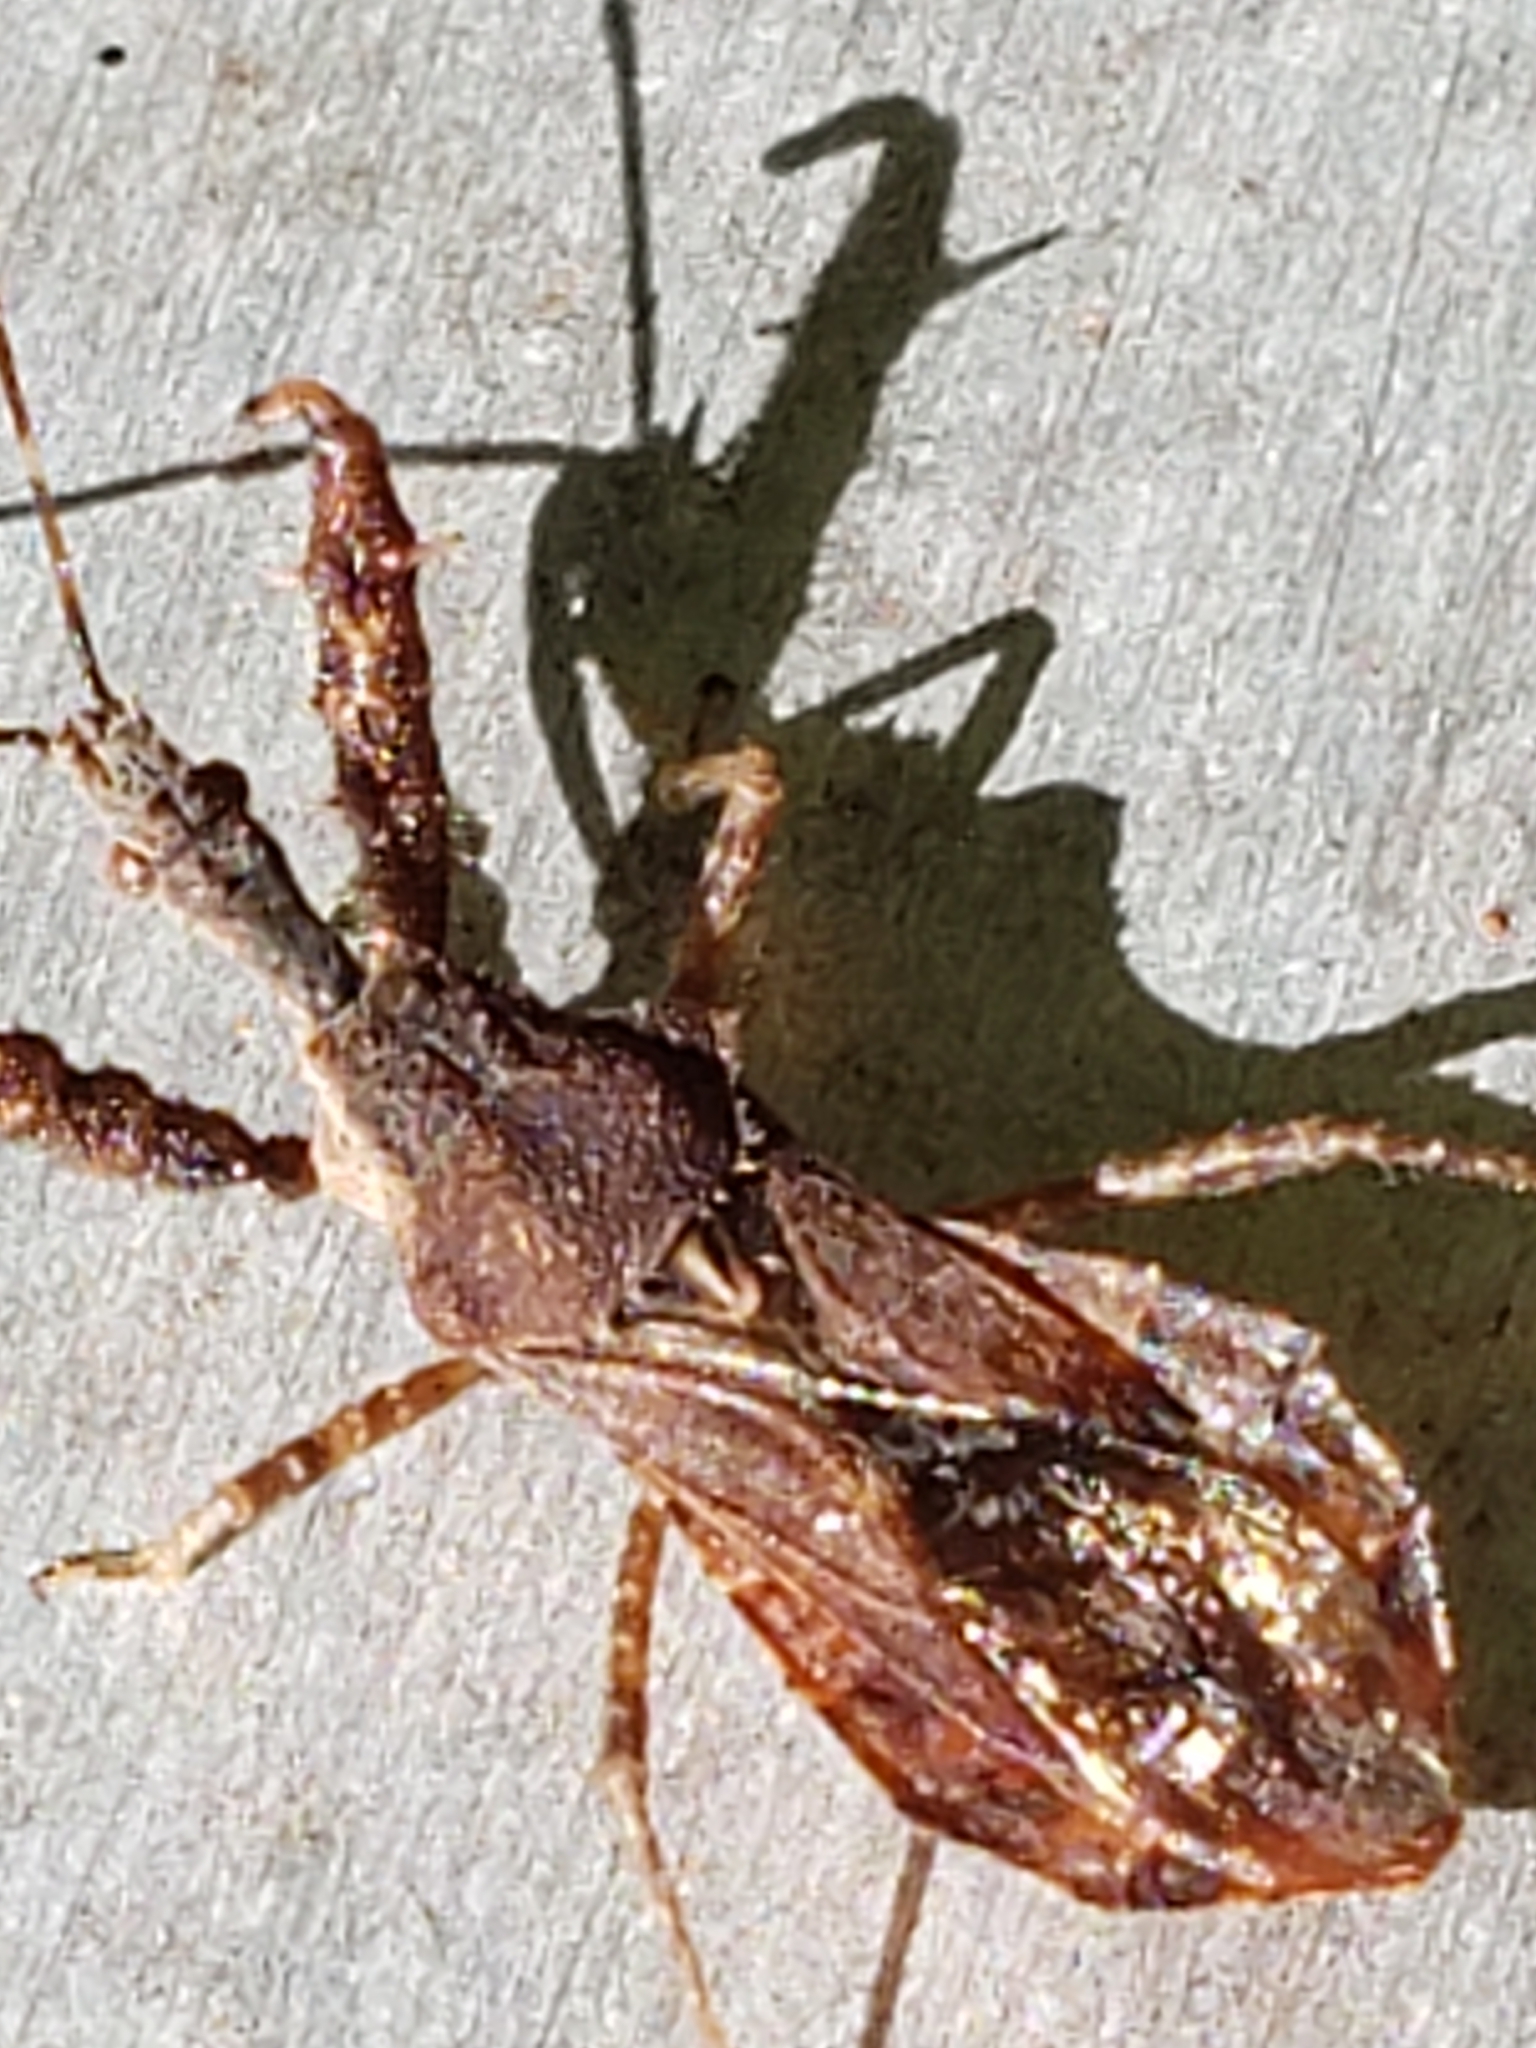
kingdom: Animalia
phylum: Arthropoda
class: Insecta
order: Hemiptera
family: Reduviidae
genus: Sinea
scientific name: Sinea spinipes
